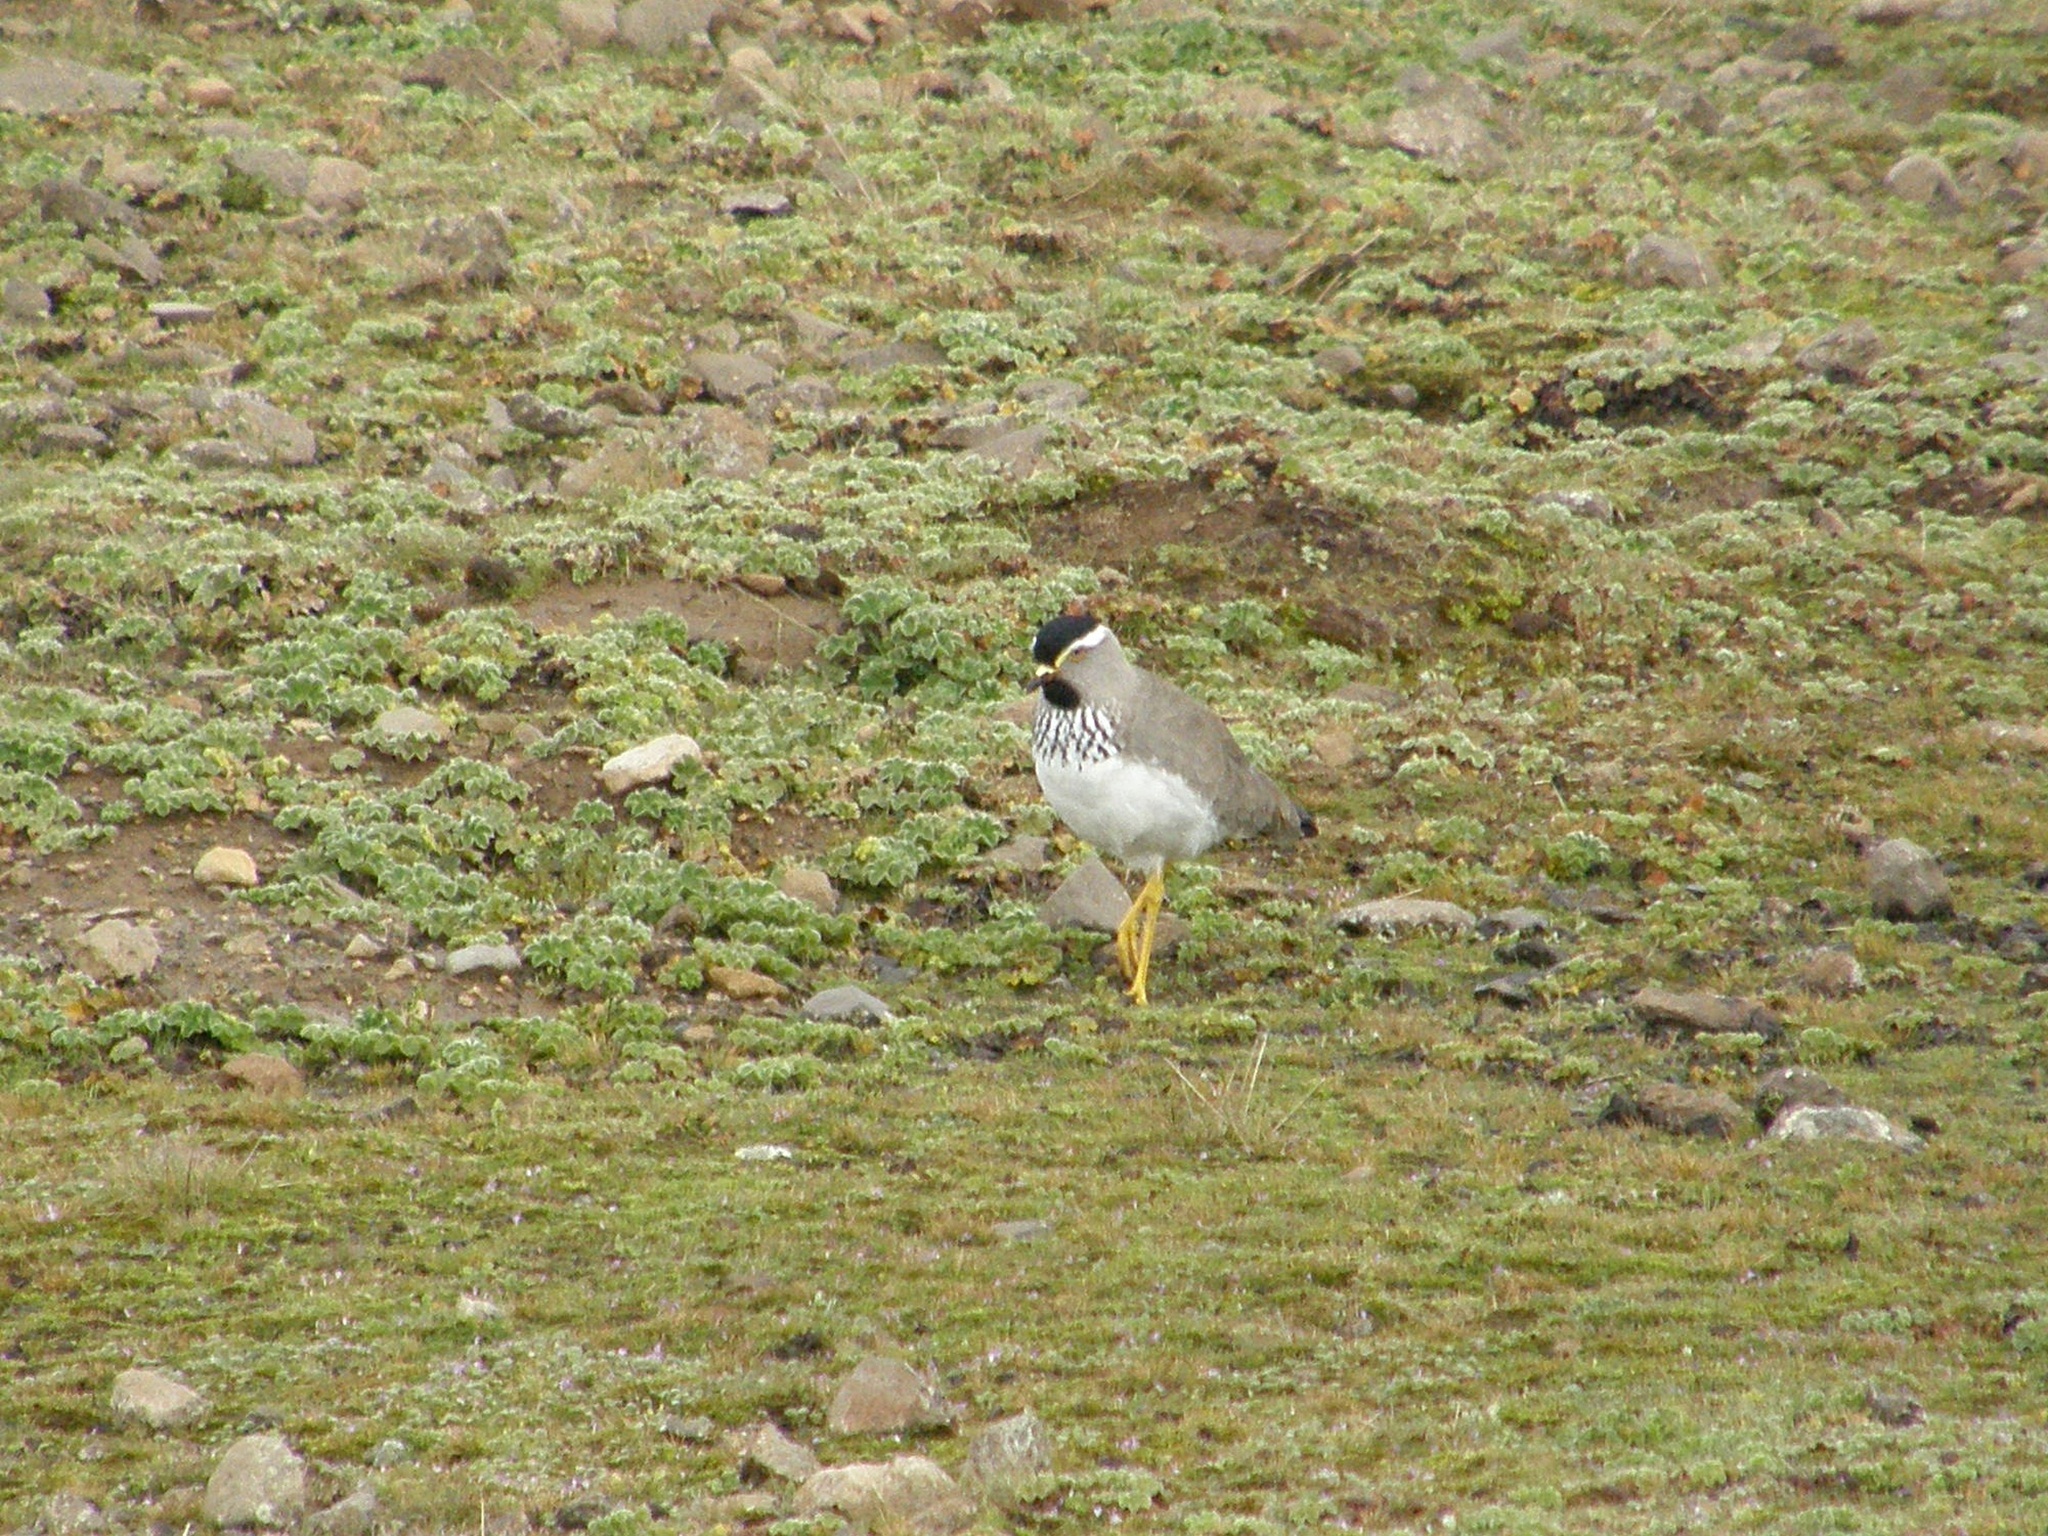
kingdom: Animalia
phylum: Chordata
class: Aves
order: Charadriiformes
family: Charadriidae
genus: Vanellus
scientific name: Vanellus melanocephalus
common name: Spot-breasted lapwing
